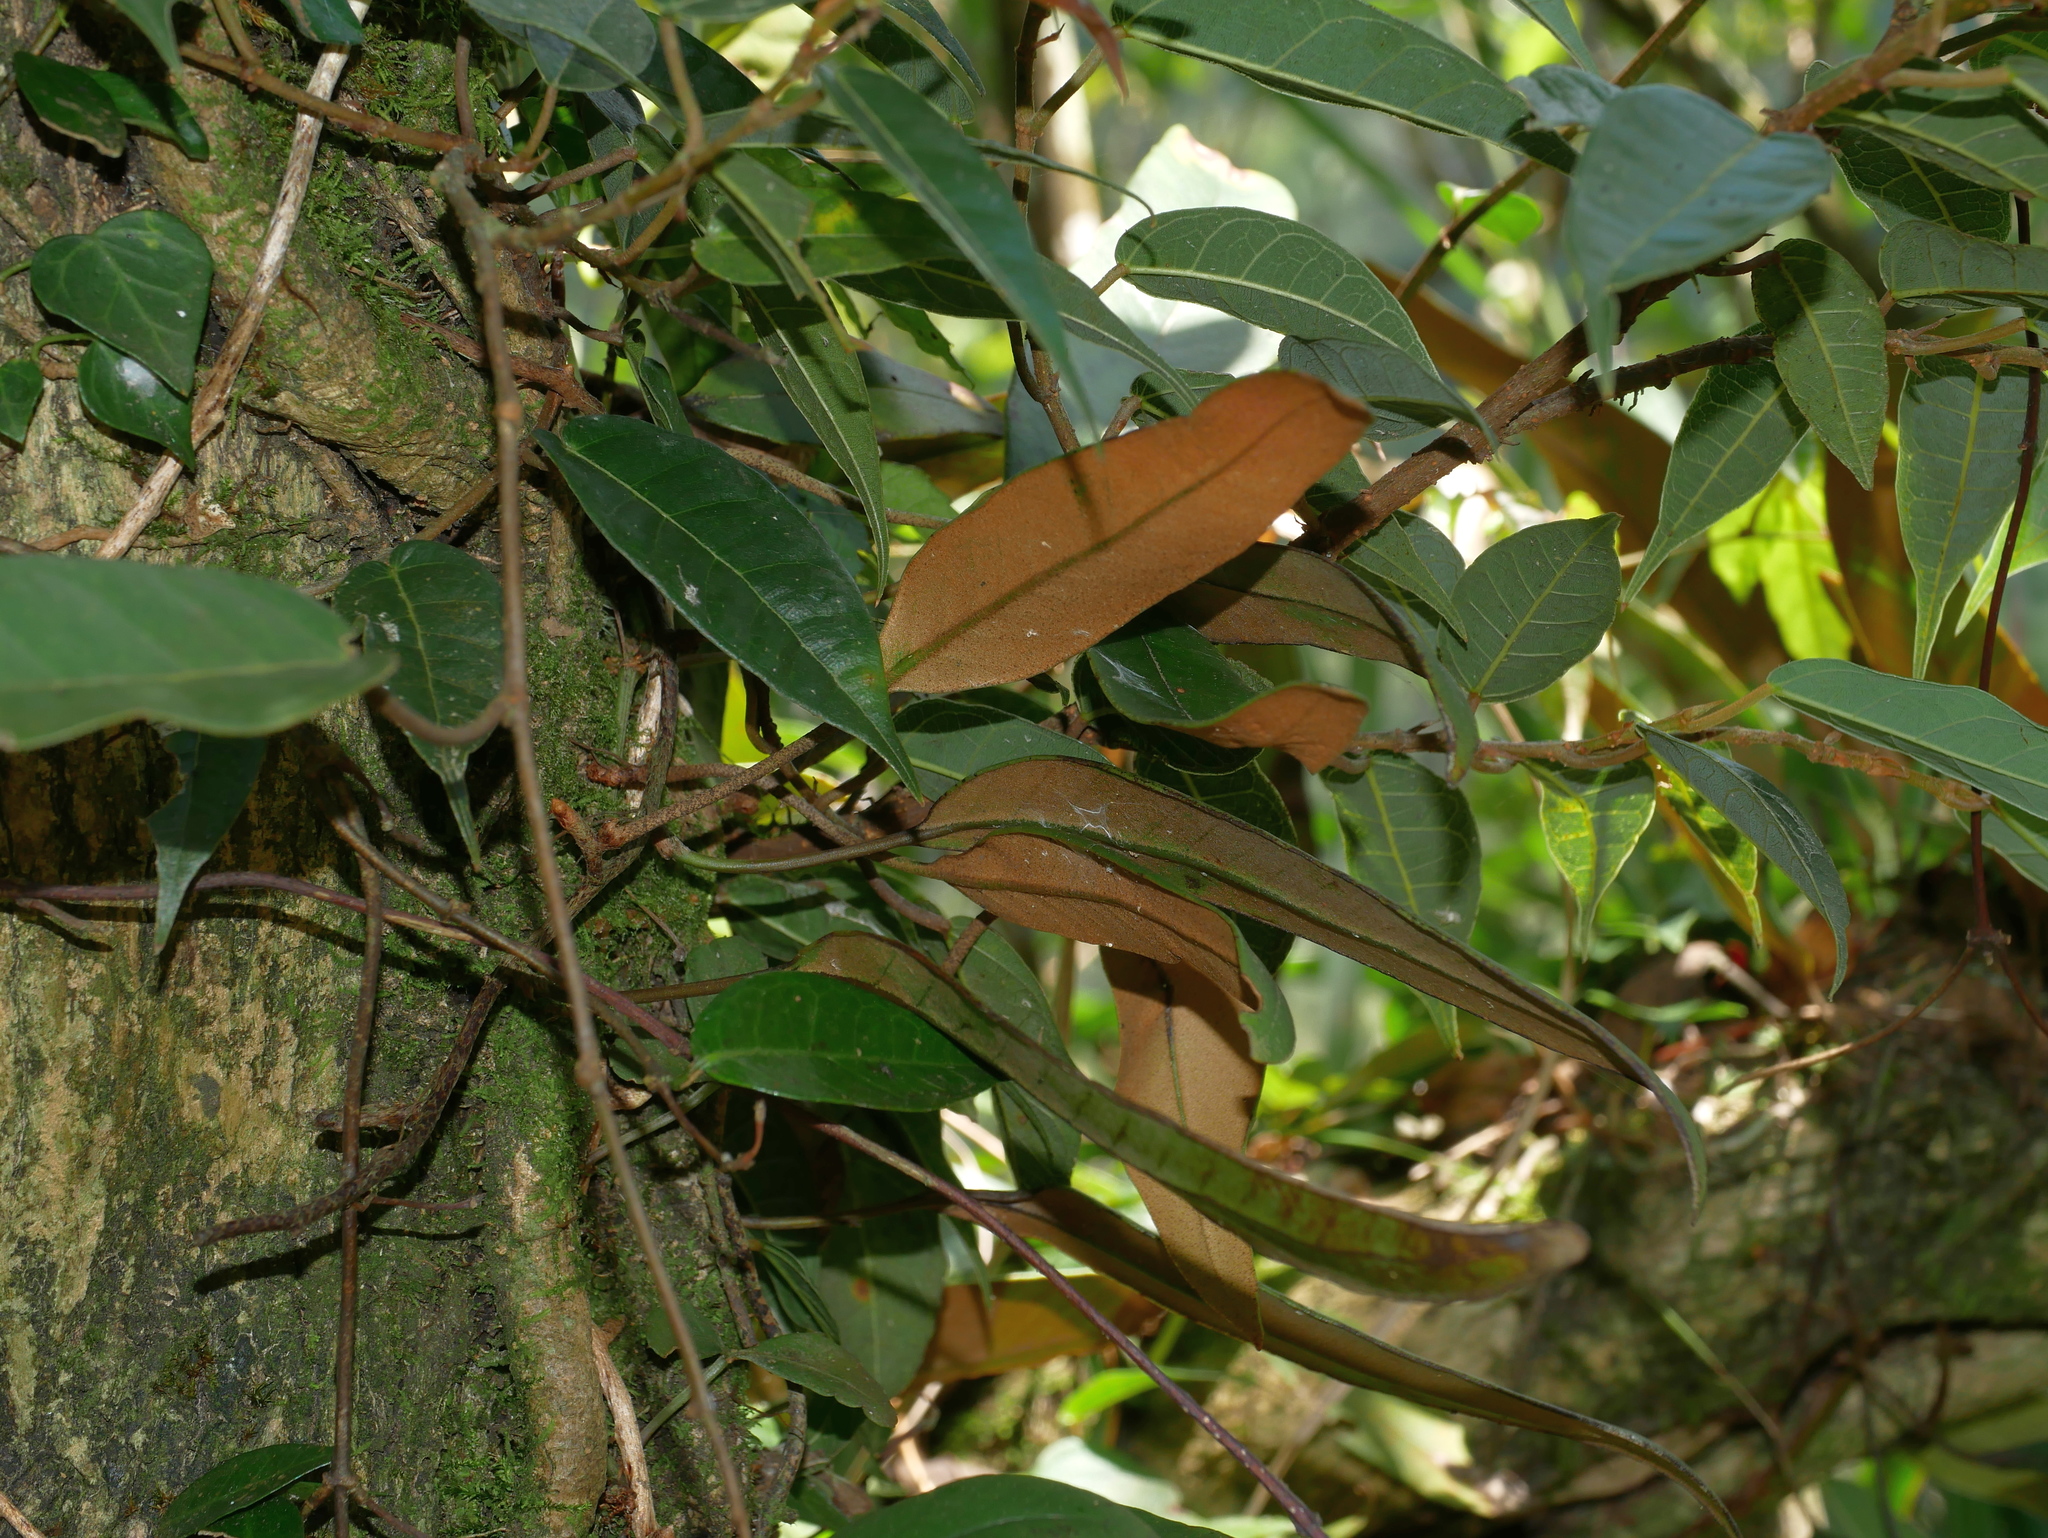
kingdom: Plantae
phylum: Tracheophyta
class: Polypodiopsida
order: Polypodiales
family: Polypodiaceae
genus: Pyrrosia
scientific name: Pyrrosia lingua
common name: Felt fern
